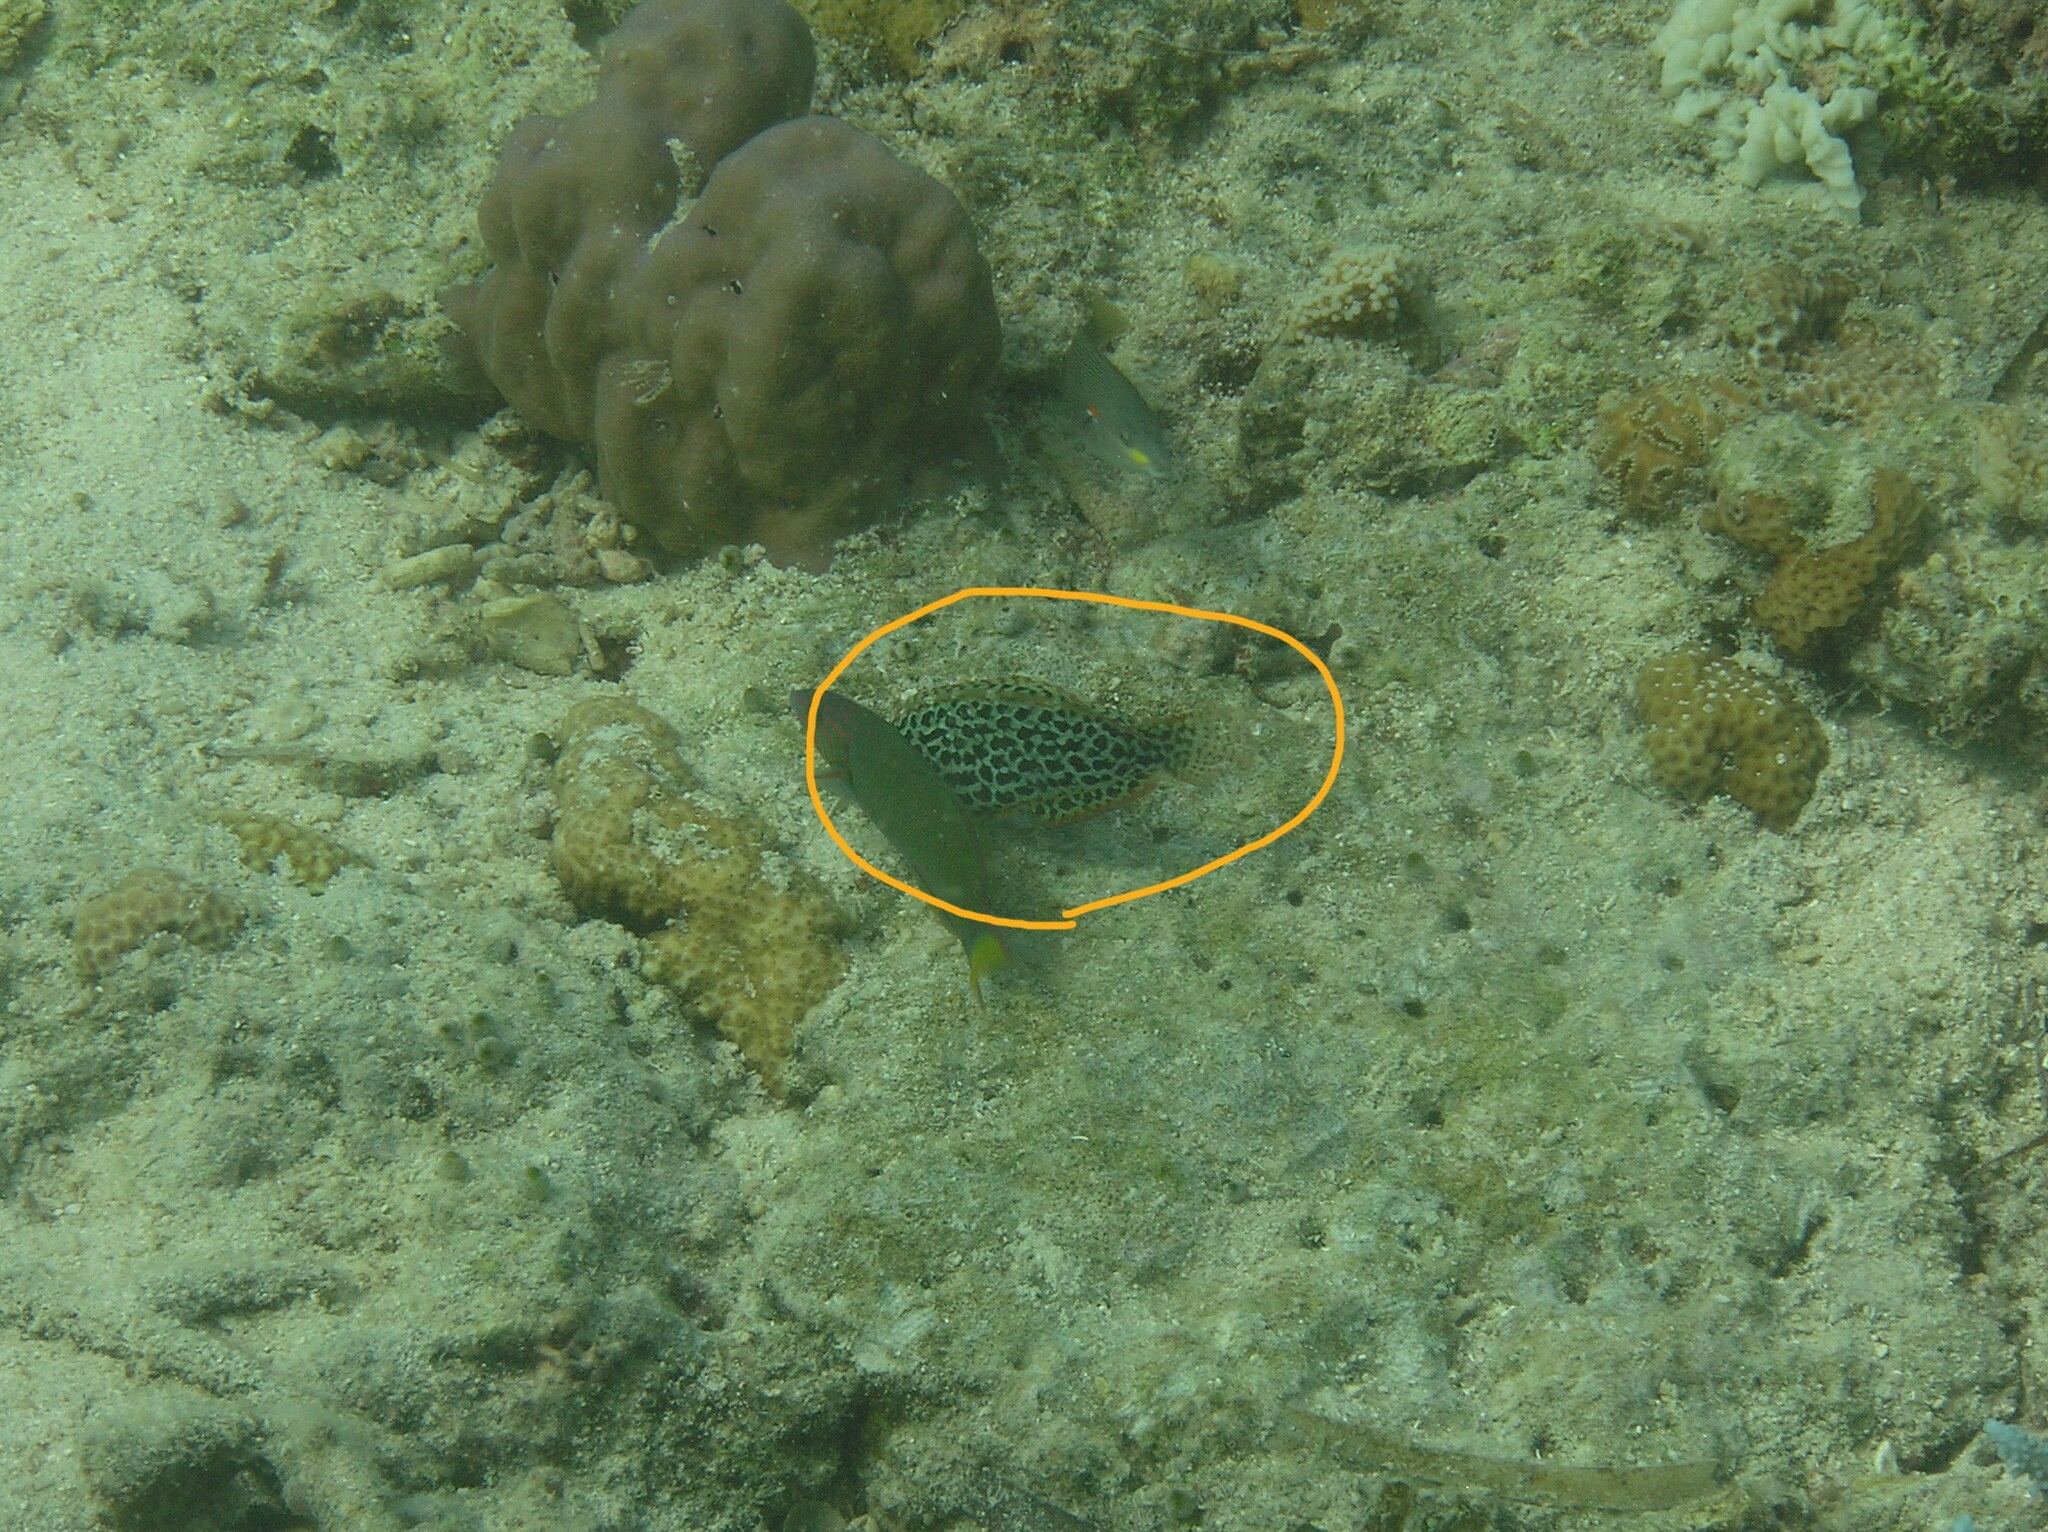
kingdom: Animalia
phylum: Chordata
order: Perciformes
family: Labridae
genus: Macropharyngodon
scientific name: Macropharyngodon meleagris
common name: Leopard wrasse
